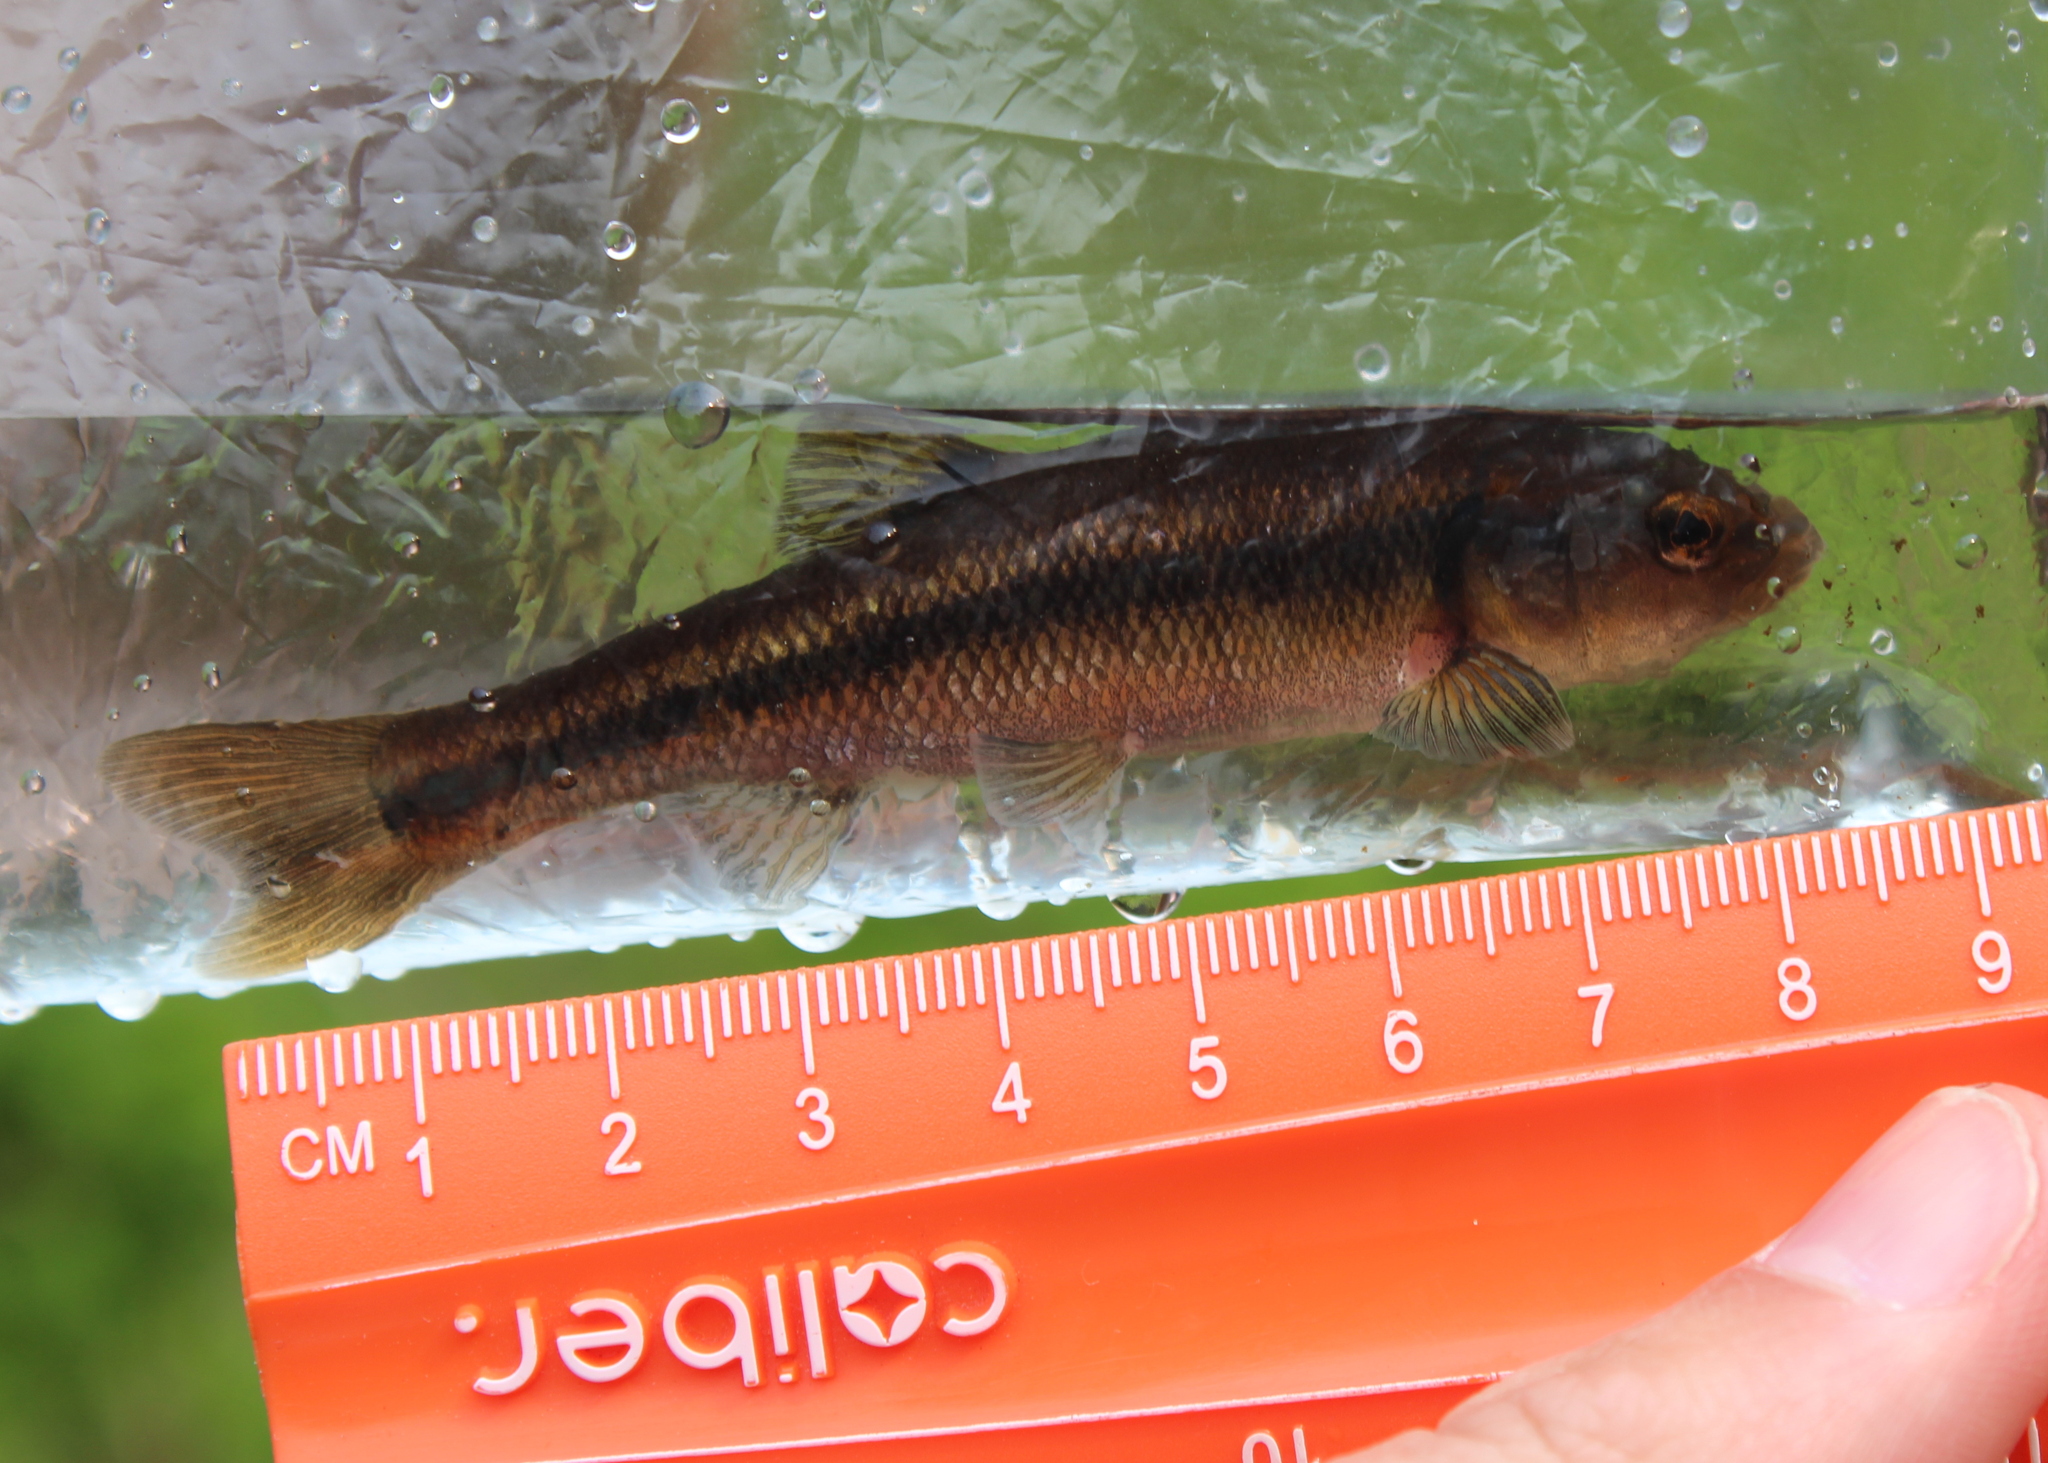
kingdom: Animalia
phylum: Chordata
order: Cypriniformes
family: Cyprinidae
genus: Semotilus
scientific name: Semotilus atromaculatus
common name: Creek chub
